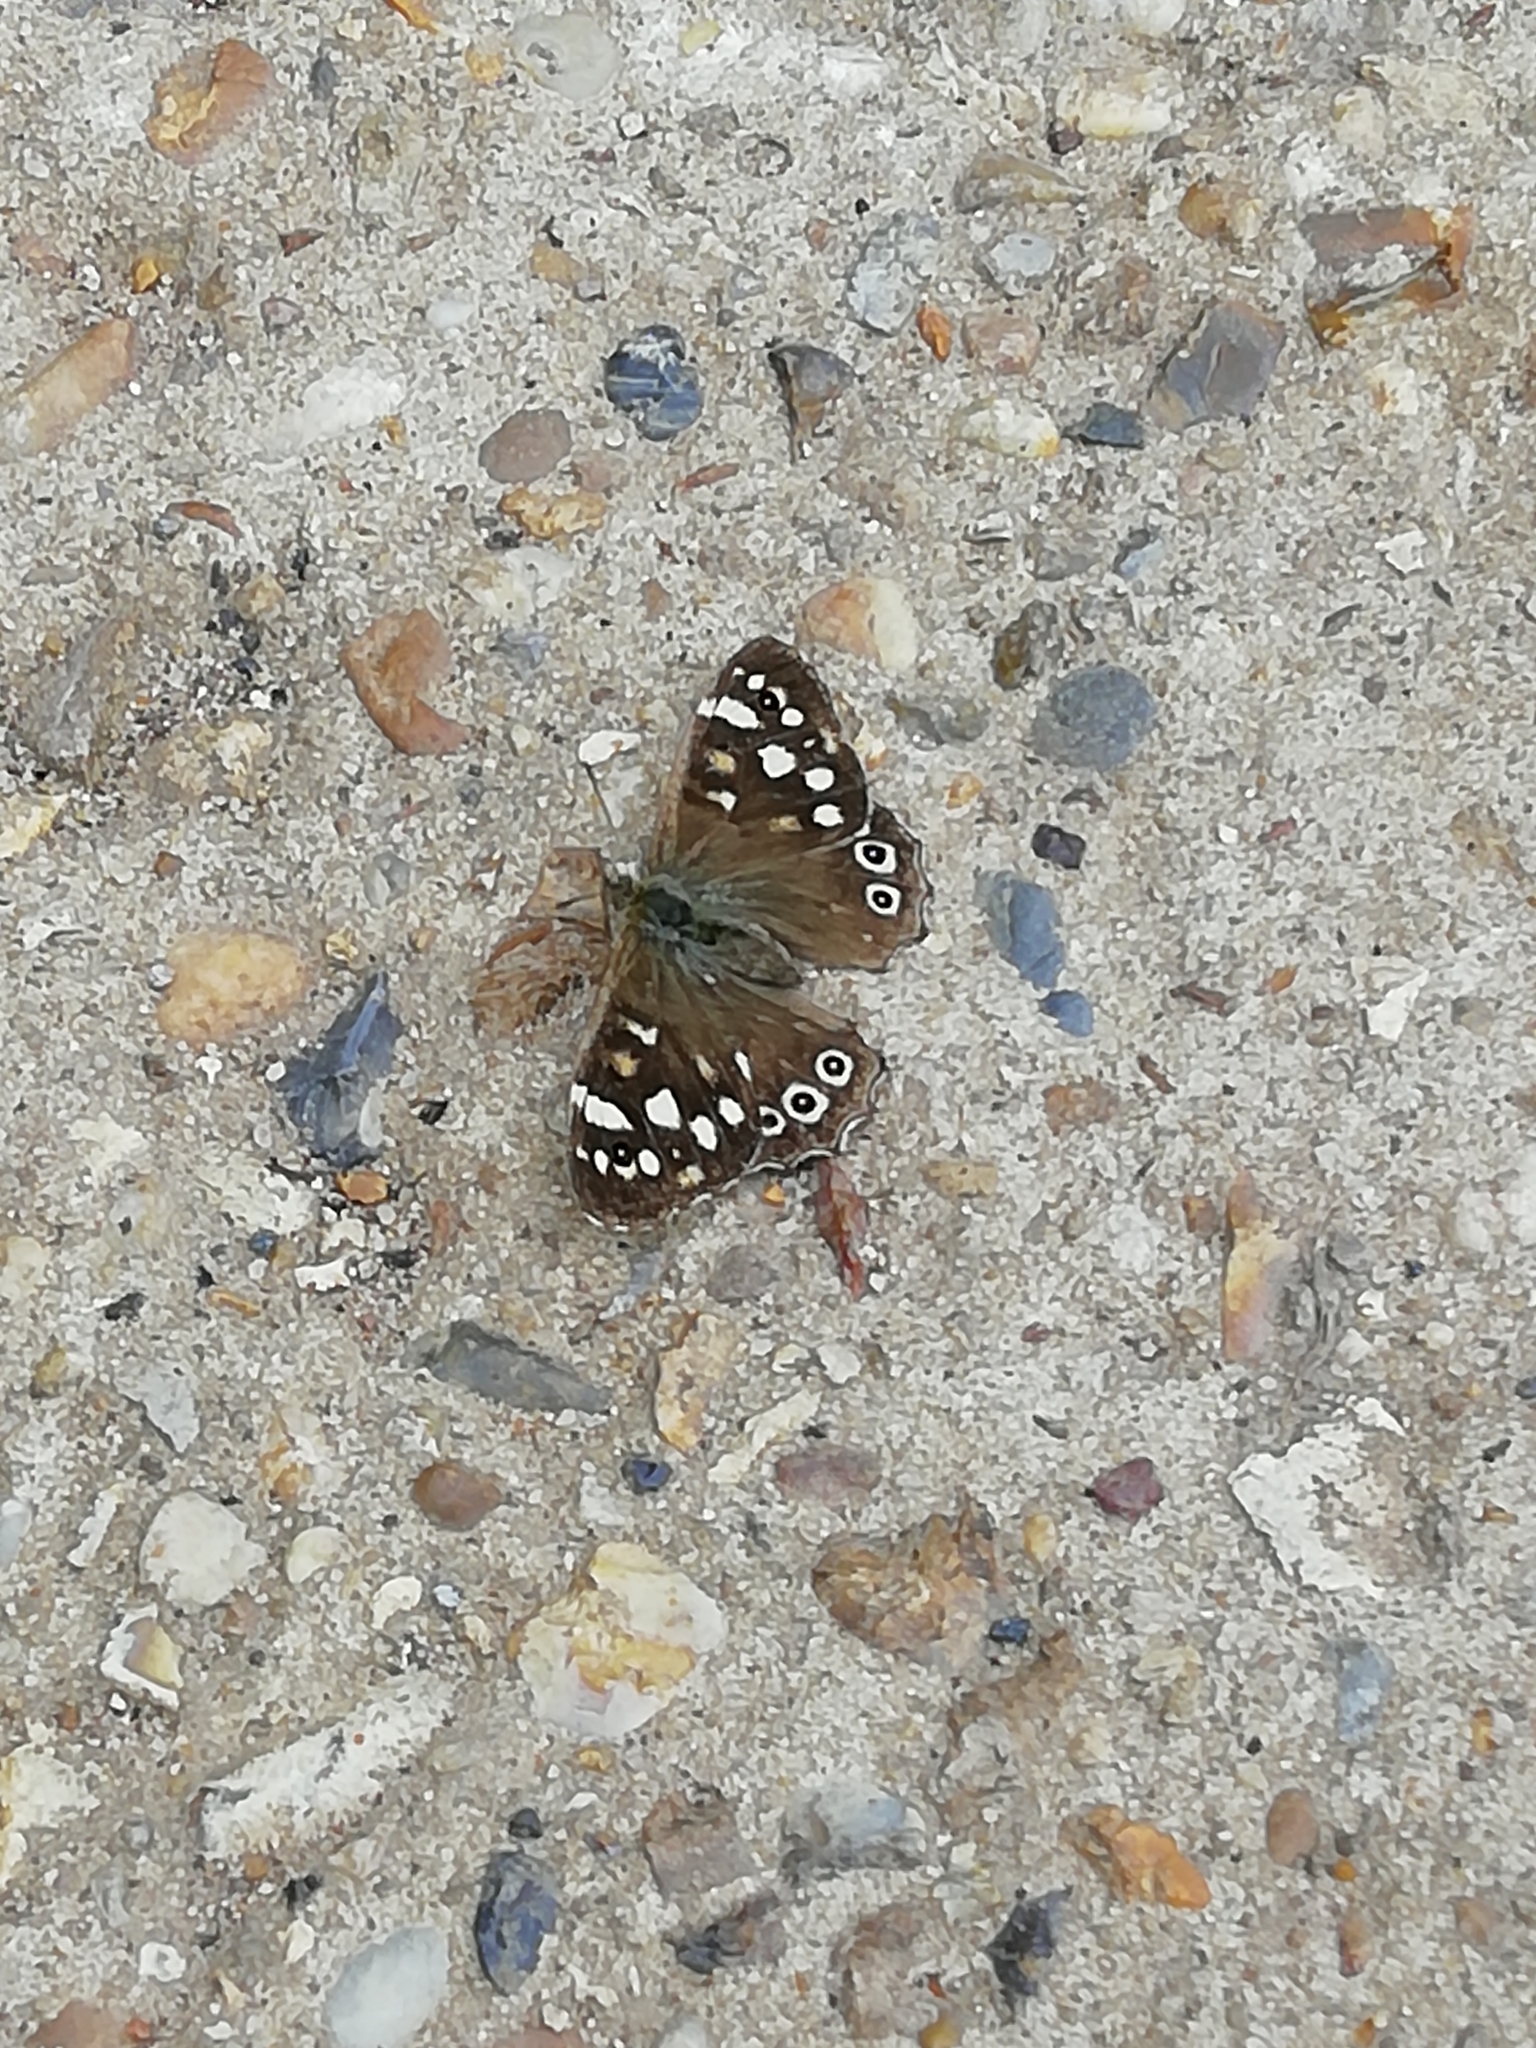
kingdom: Animalia
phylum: Arthropoda
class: Insecta
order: Lepidoptera
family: Nymphalidae
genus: Pararge
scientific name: Pararge aegeria
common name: Speckled wood
